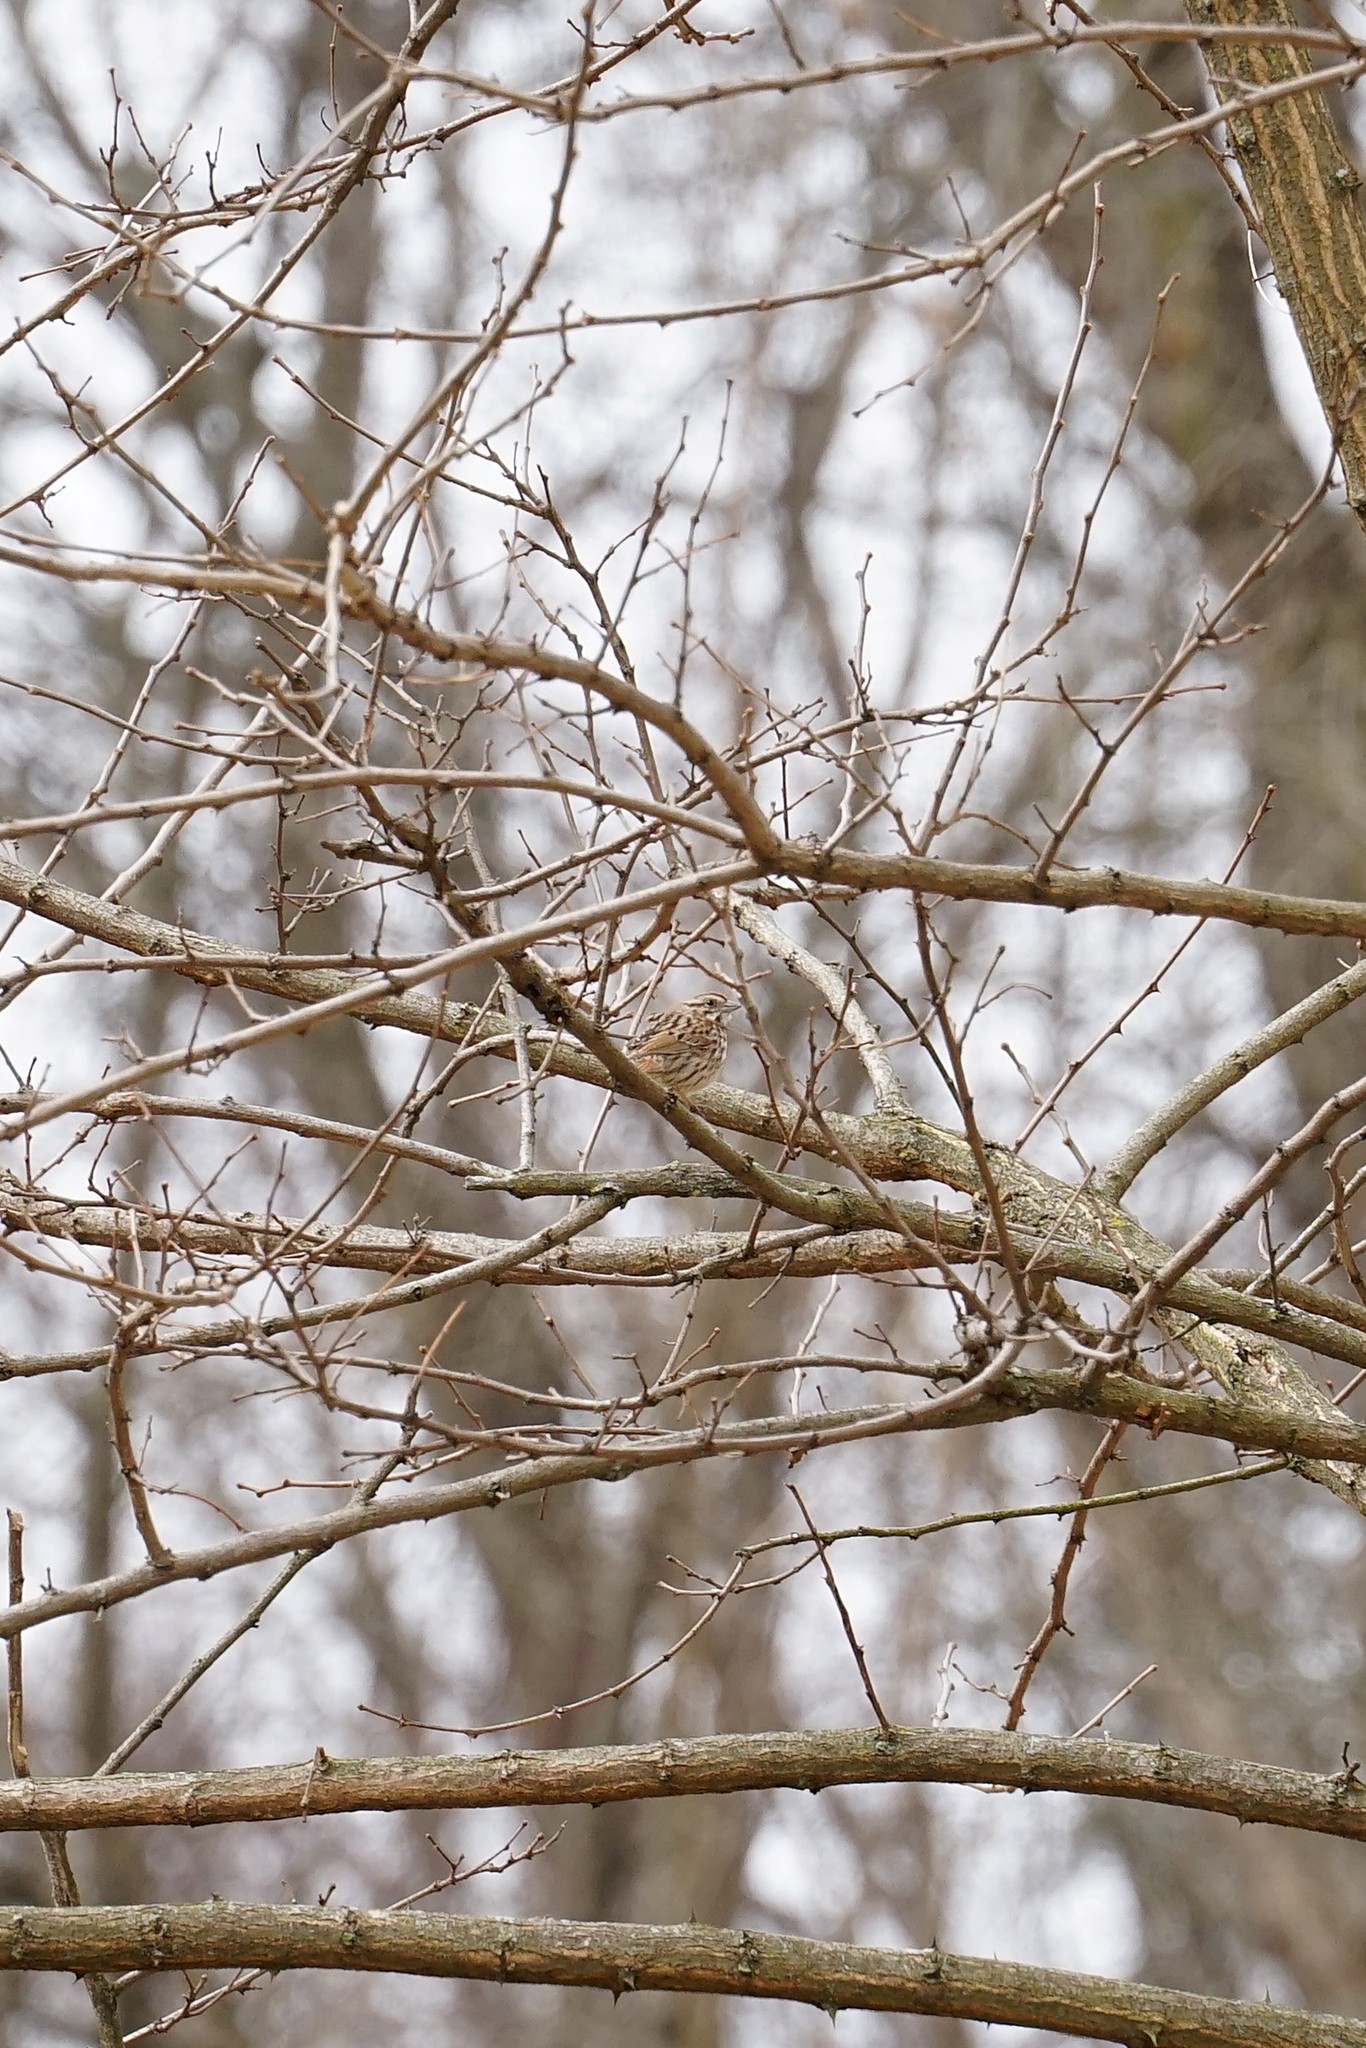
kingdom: Animalia
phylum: Chordata
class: Aves
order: Passeriformes
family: Passerellidae
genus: Melospiza
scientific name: Melospiza melodia
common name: Song sparrow
